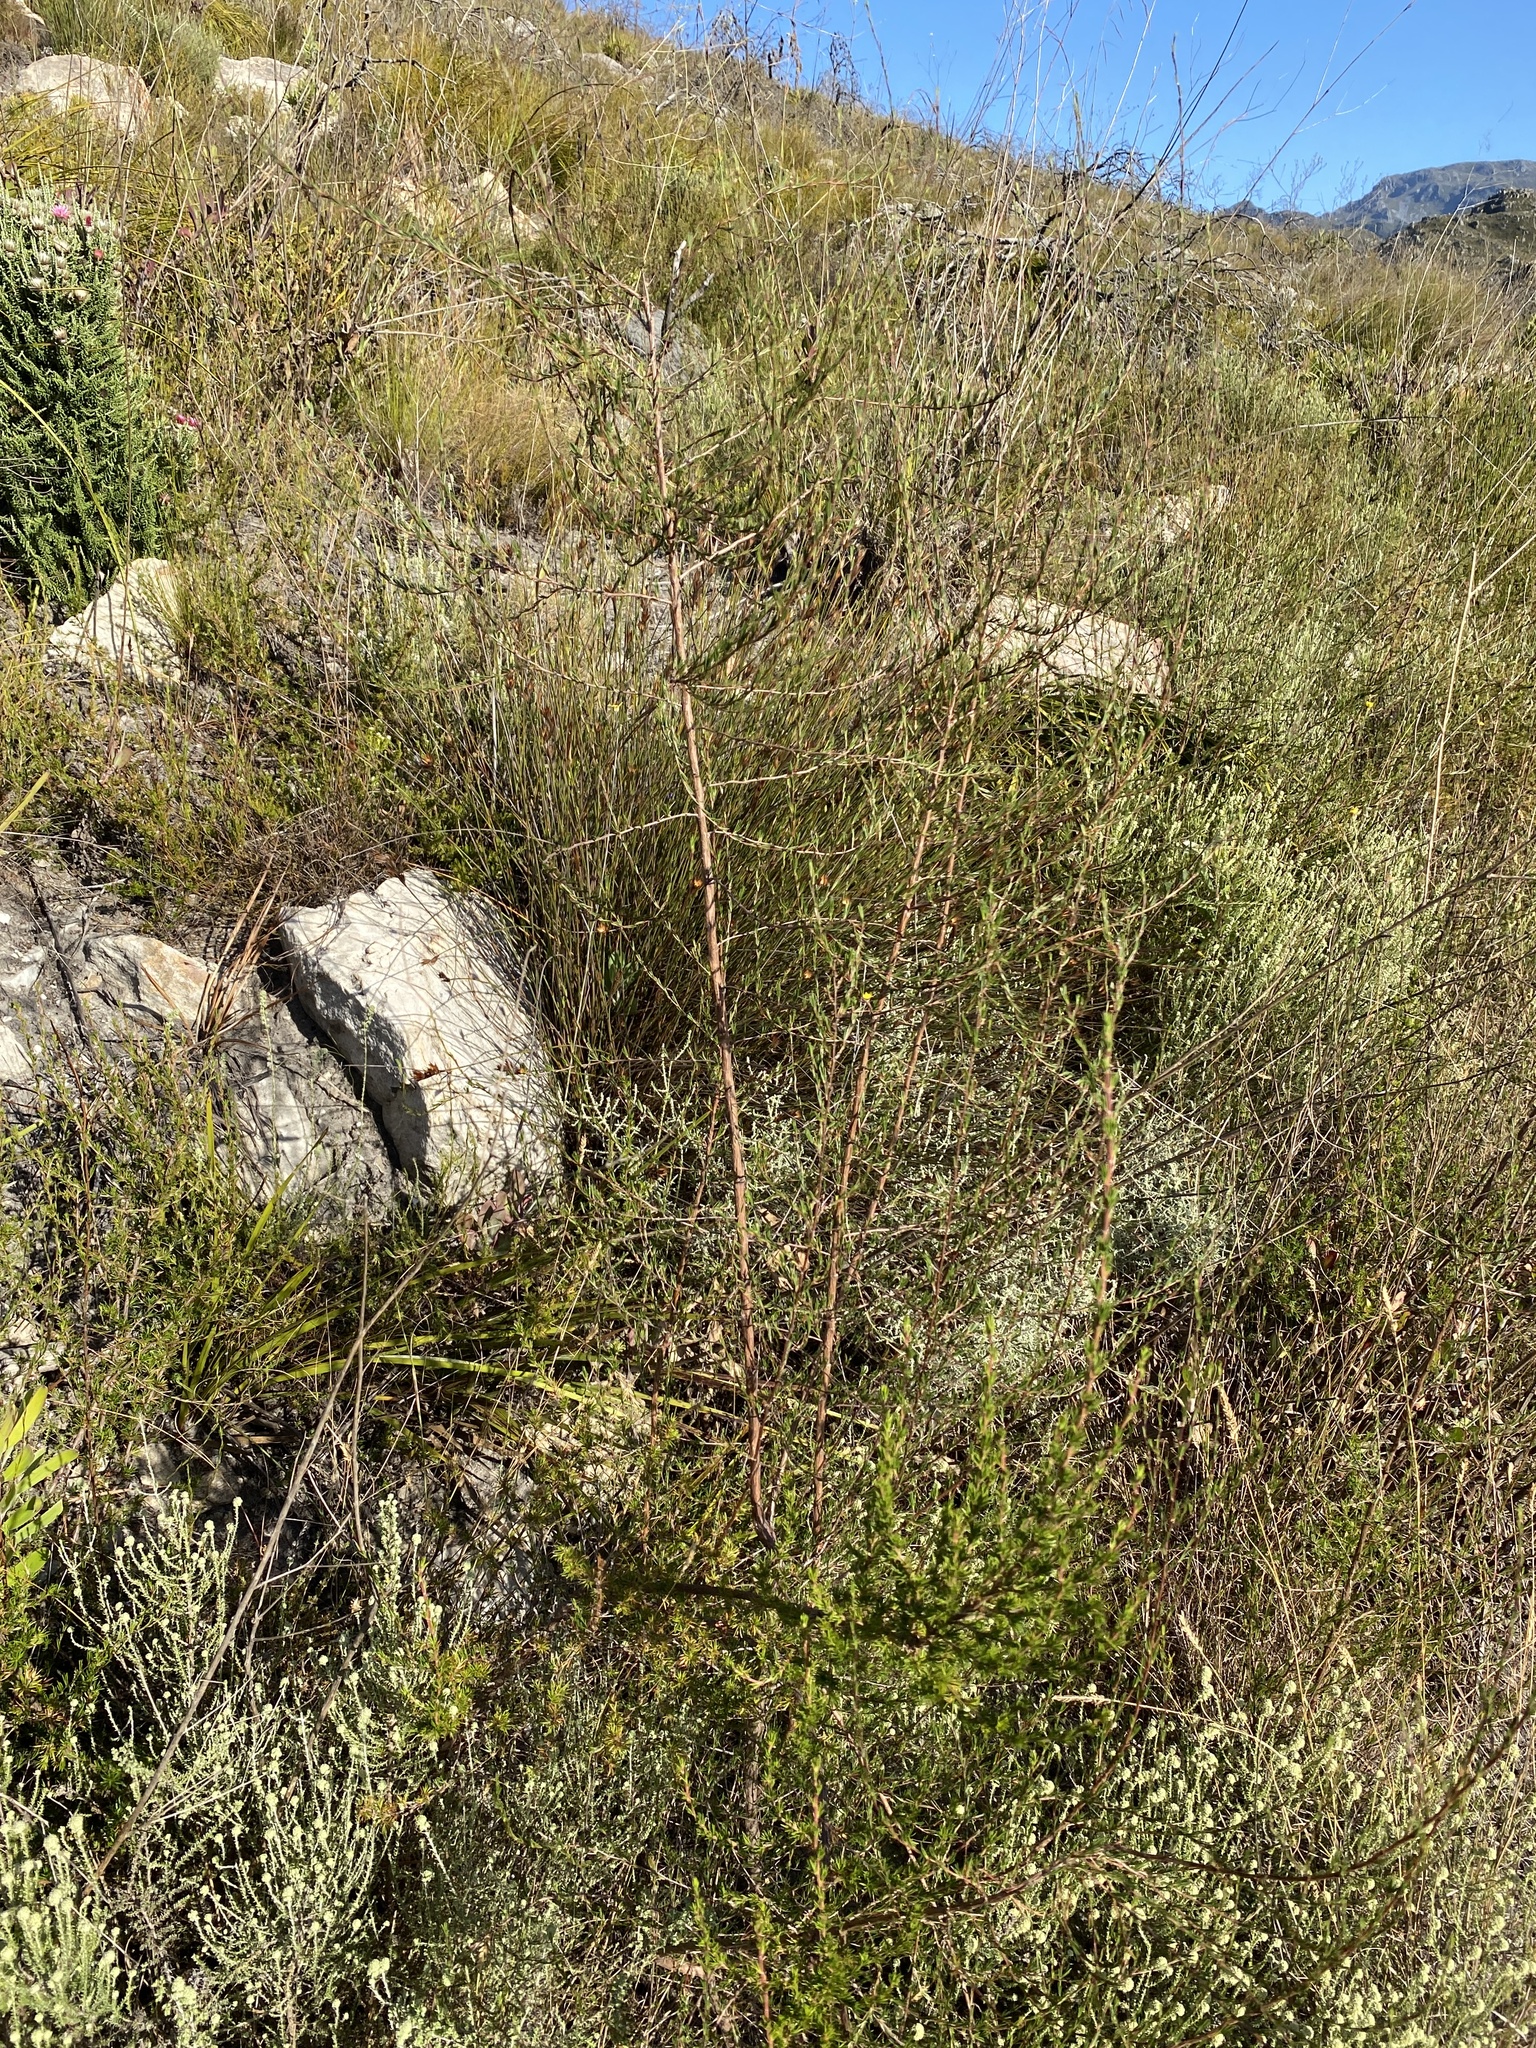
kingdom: Plantae
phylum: Tracheophyta
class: Magnoliopsida
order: Rosales
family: Rosaceae
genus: Cliffortia
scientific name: Cliffortia juniperina
